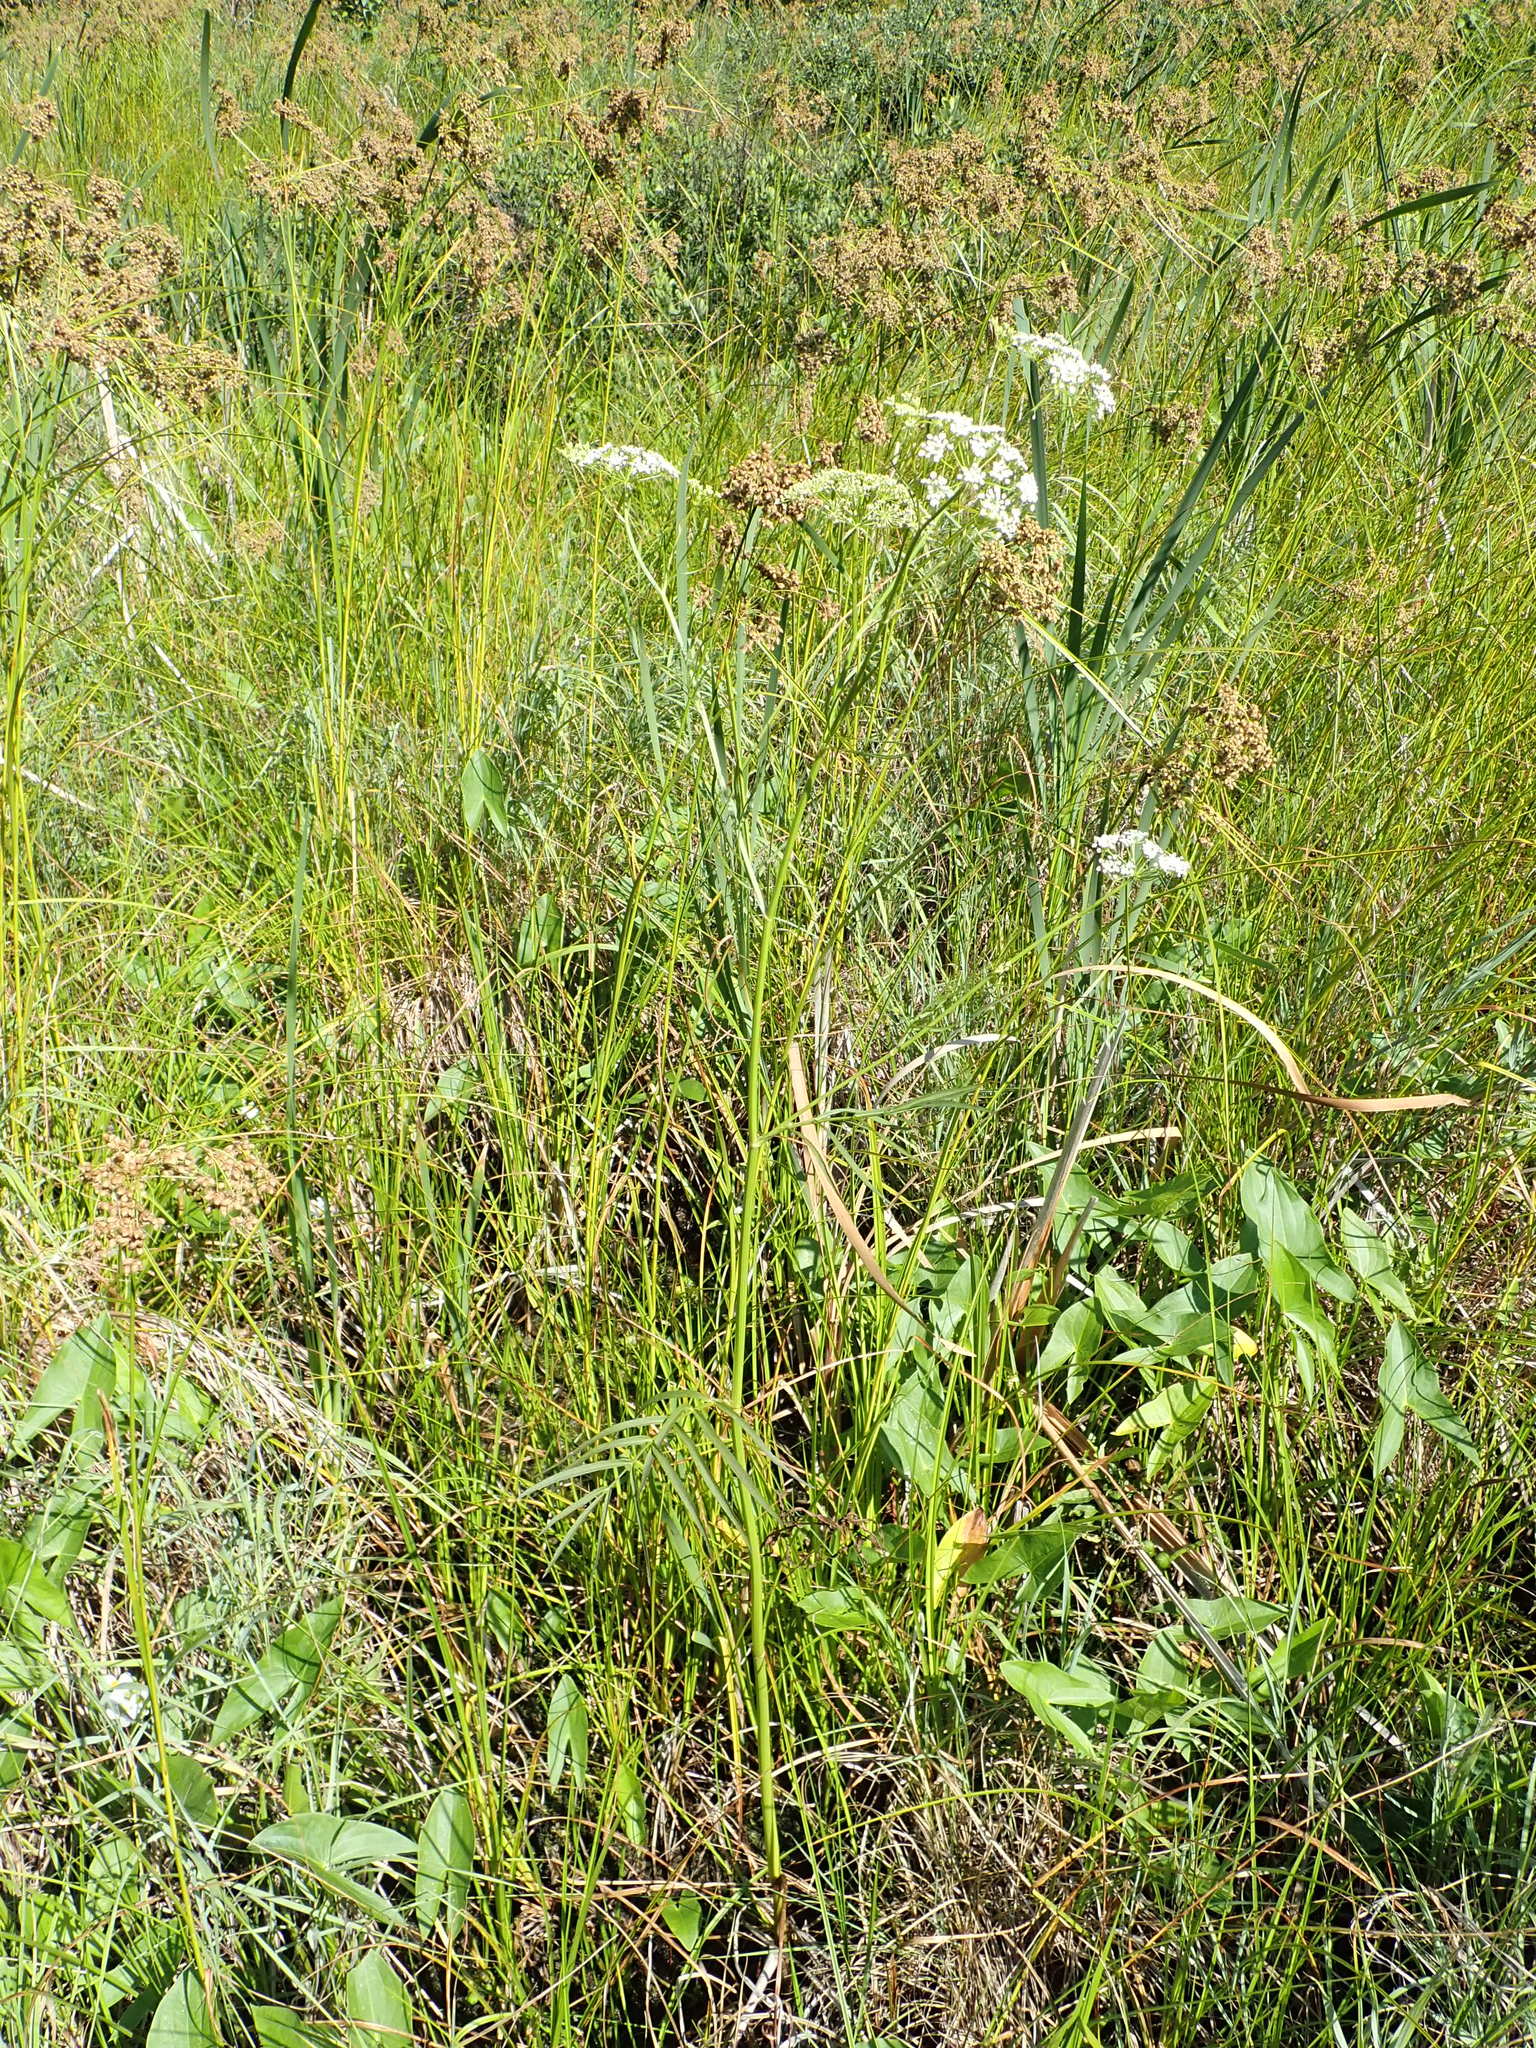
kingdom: Plantae
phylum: Tracheophyta
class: Magnoliopsida
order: Apiales
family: Apiaceae
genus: Sium
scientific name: Sium suave
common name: Hemlock water-parsnip
